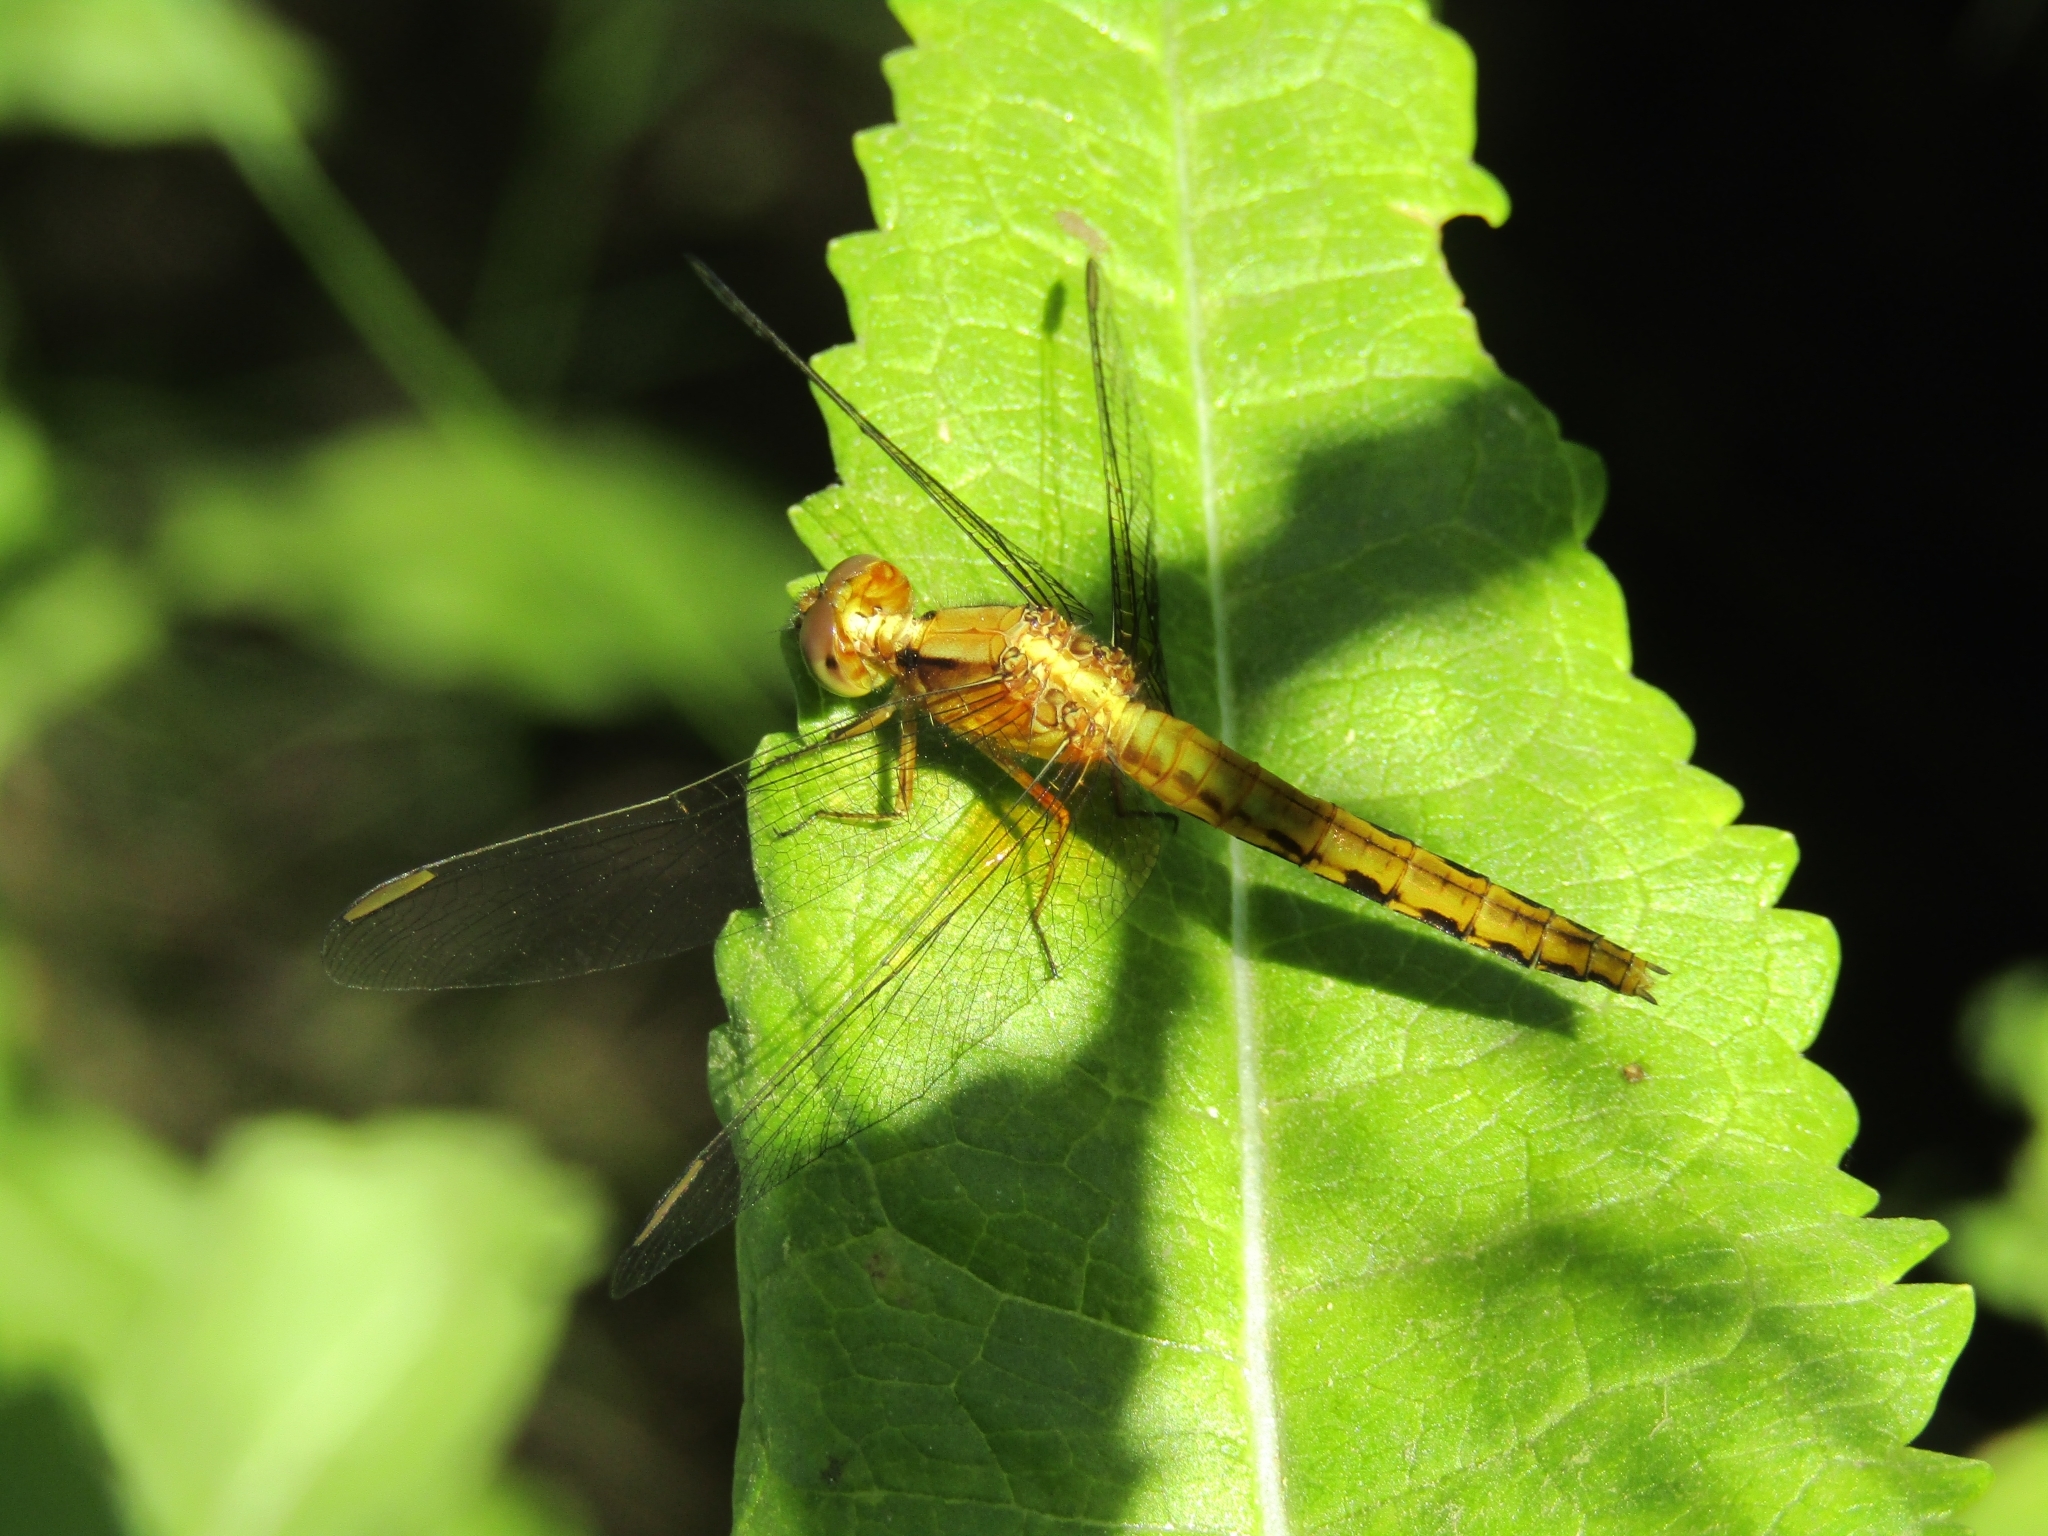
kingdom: Animalia
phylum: Arthropoda
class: Insecta
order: Odonata
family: Libellulidae
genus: Erythrodiplax
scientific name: Erythrodiplax melanorubra
